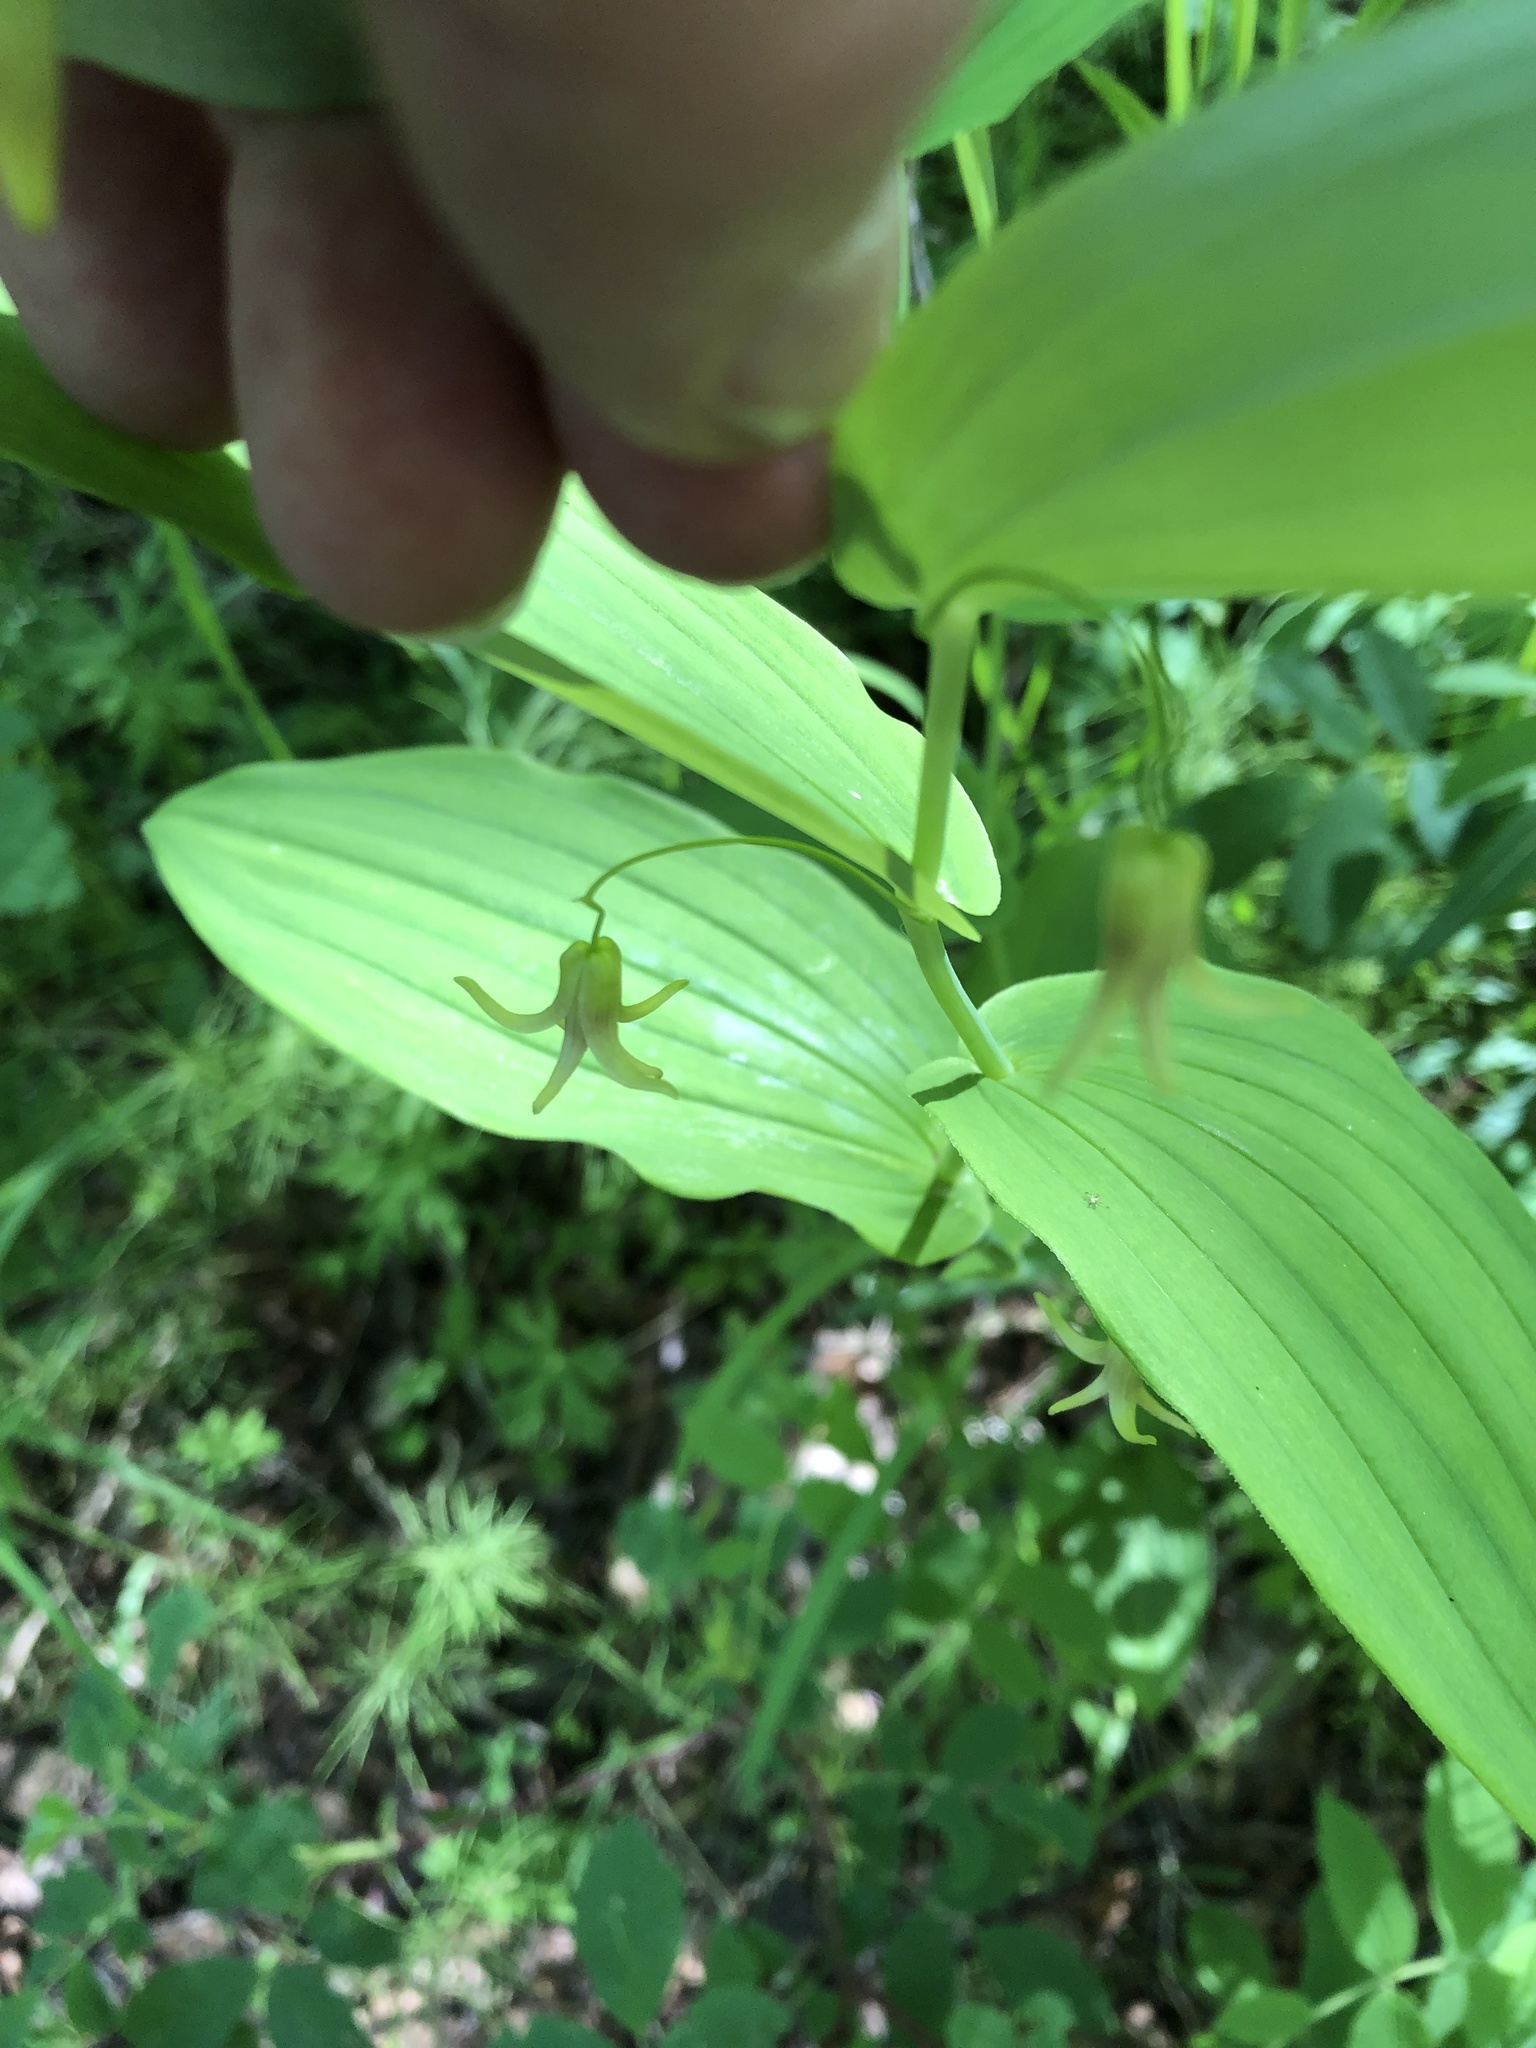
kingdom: Plantae
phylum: Tracheophyta
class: Liliopsida
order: Liliales
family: Liliaceae
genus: Streptopus
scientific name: Streptopus amplexifolius
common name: Clasp twisted stalk
